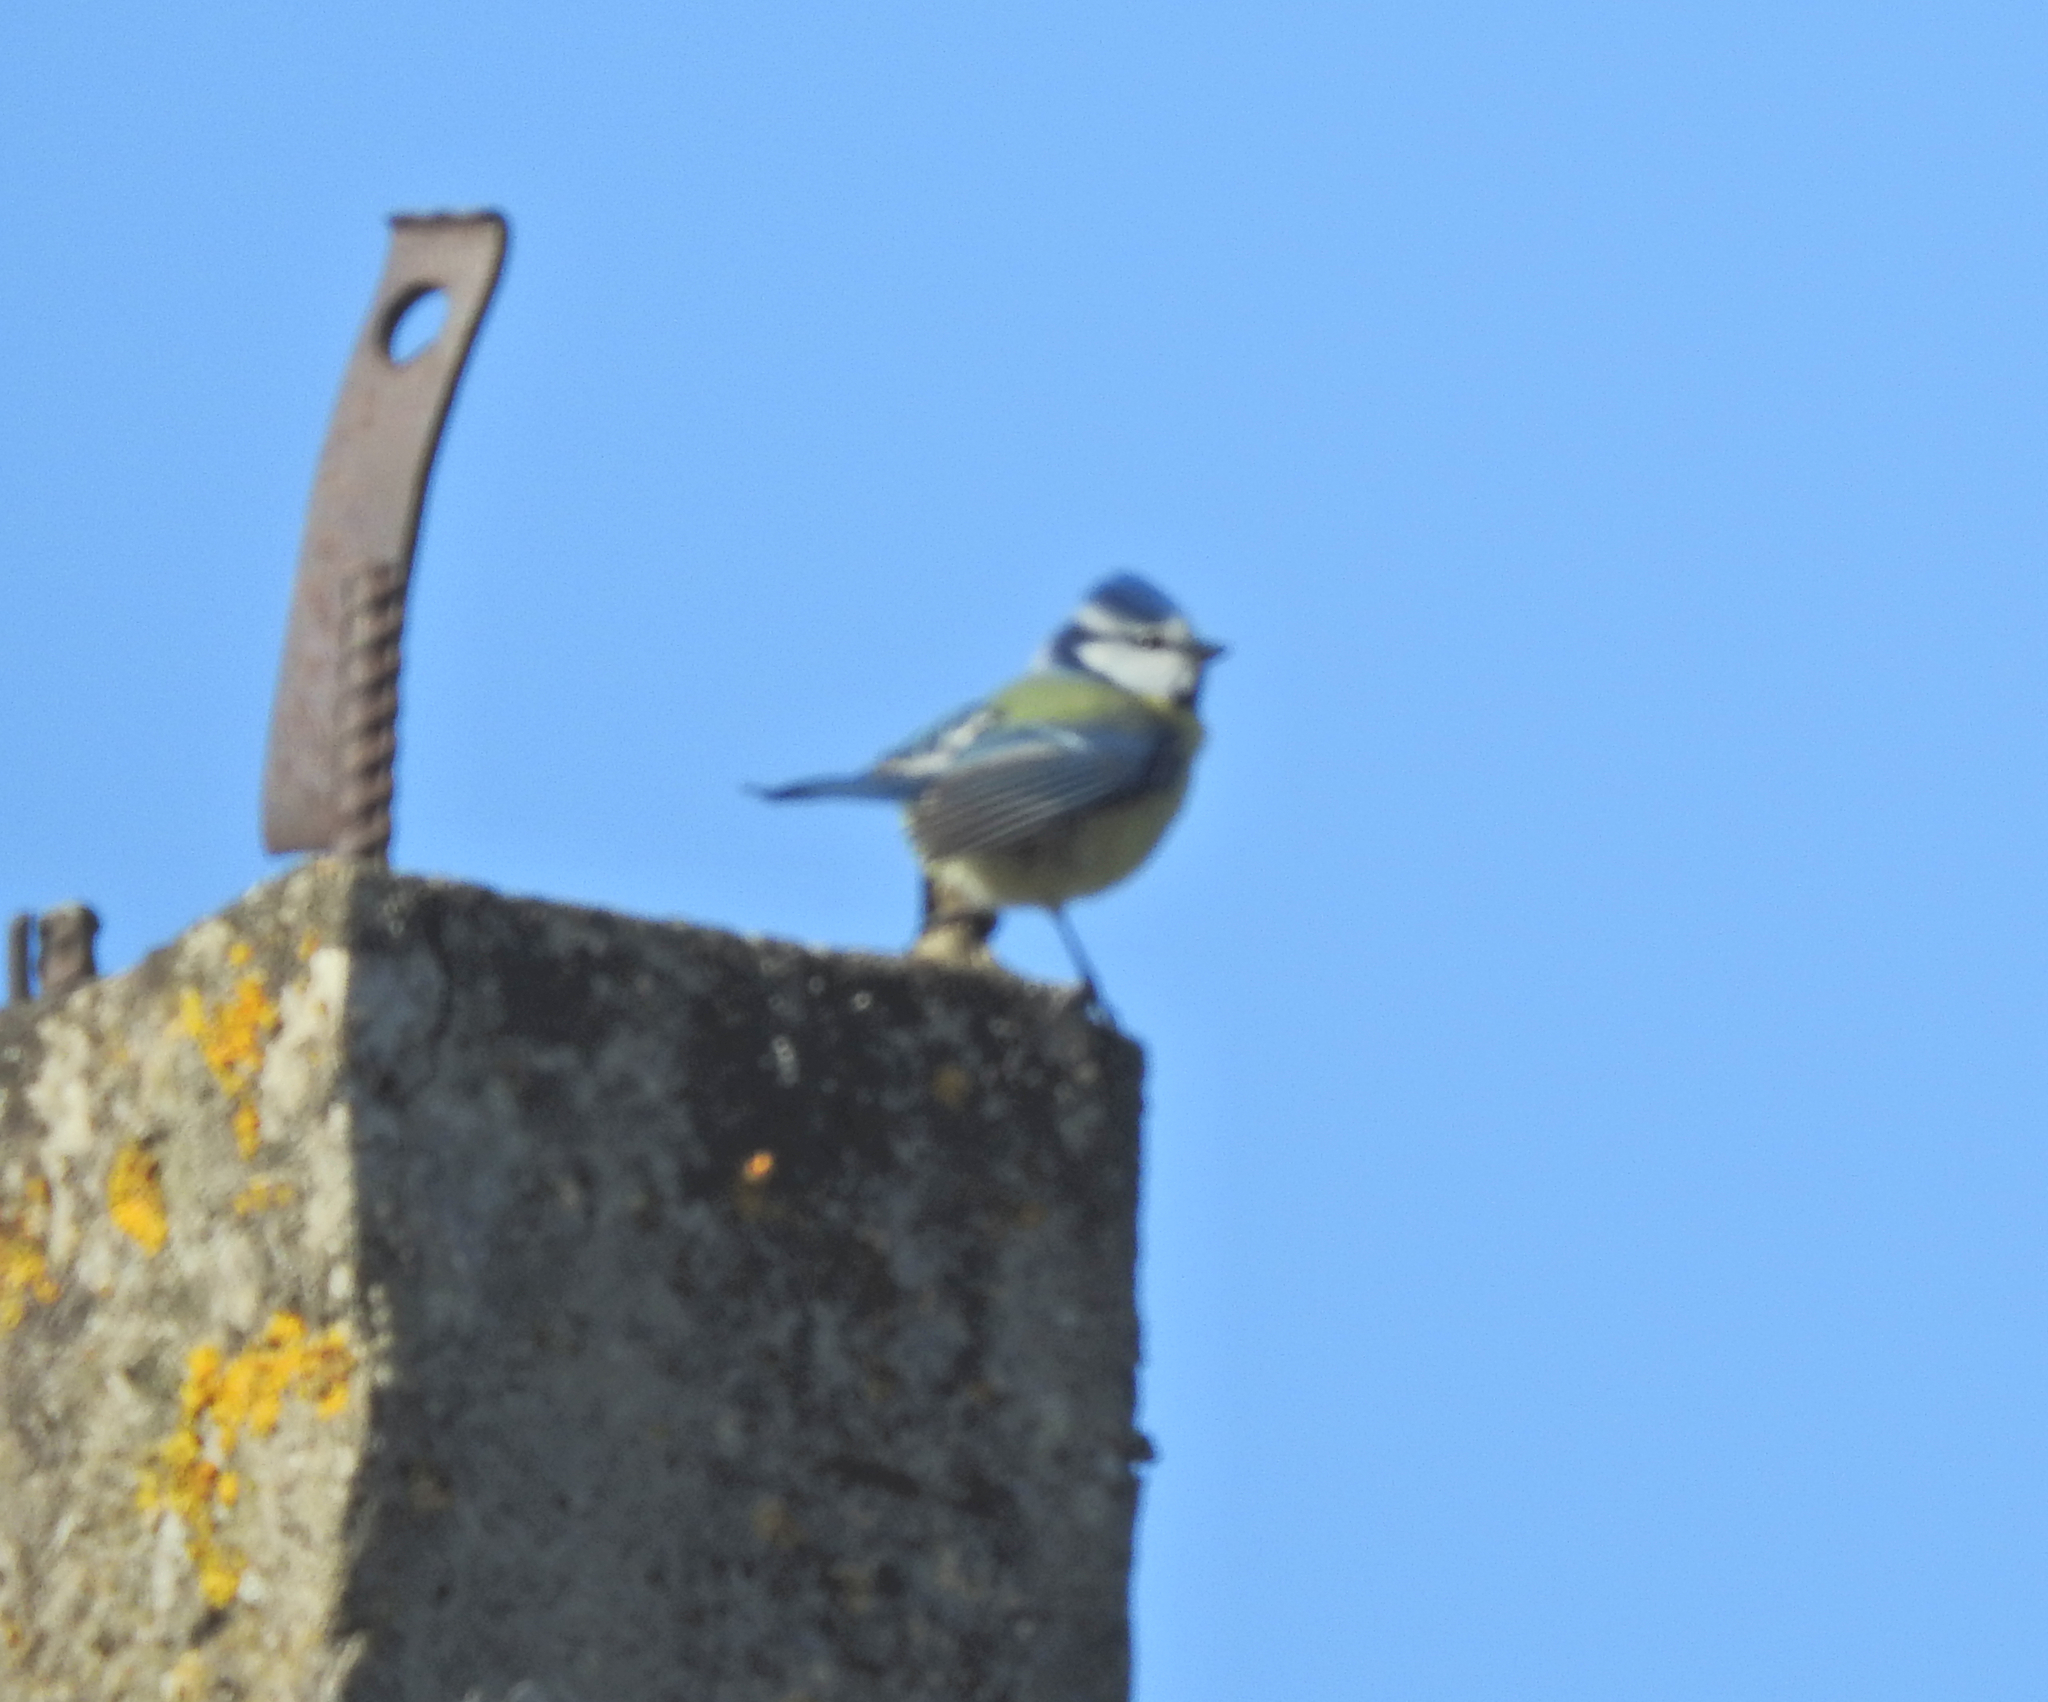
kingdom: Animalia
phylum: Chordata
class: Aves
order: Passeriformes
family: Paridae
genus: Cyanistes
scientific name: Cyanistes caeruleus
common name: Eurasian blue tit
